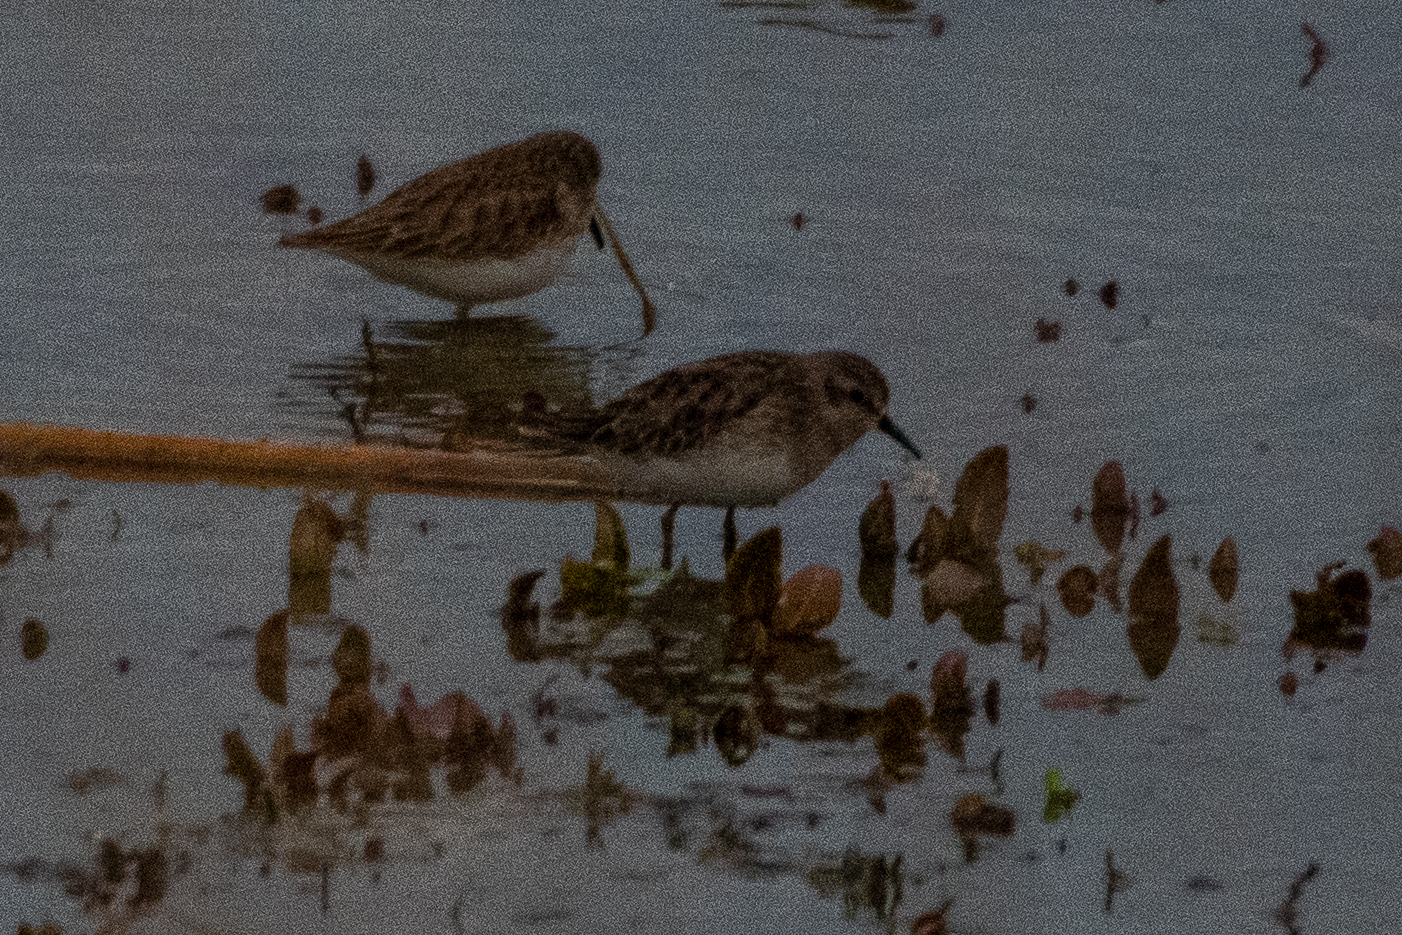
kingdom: Animalia
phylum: Chordata
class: Aves
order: Charadriiformes
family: Scolopacidae
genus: Calidris
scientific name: Calidris minutilla
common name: Least sandpiper
